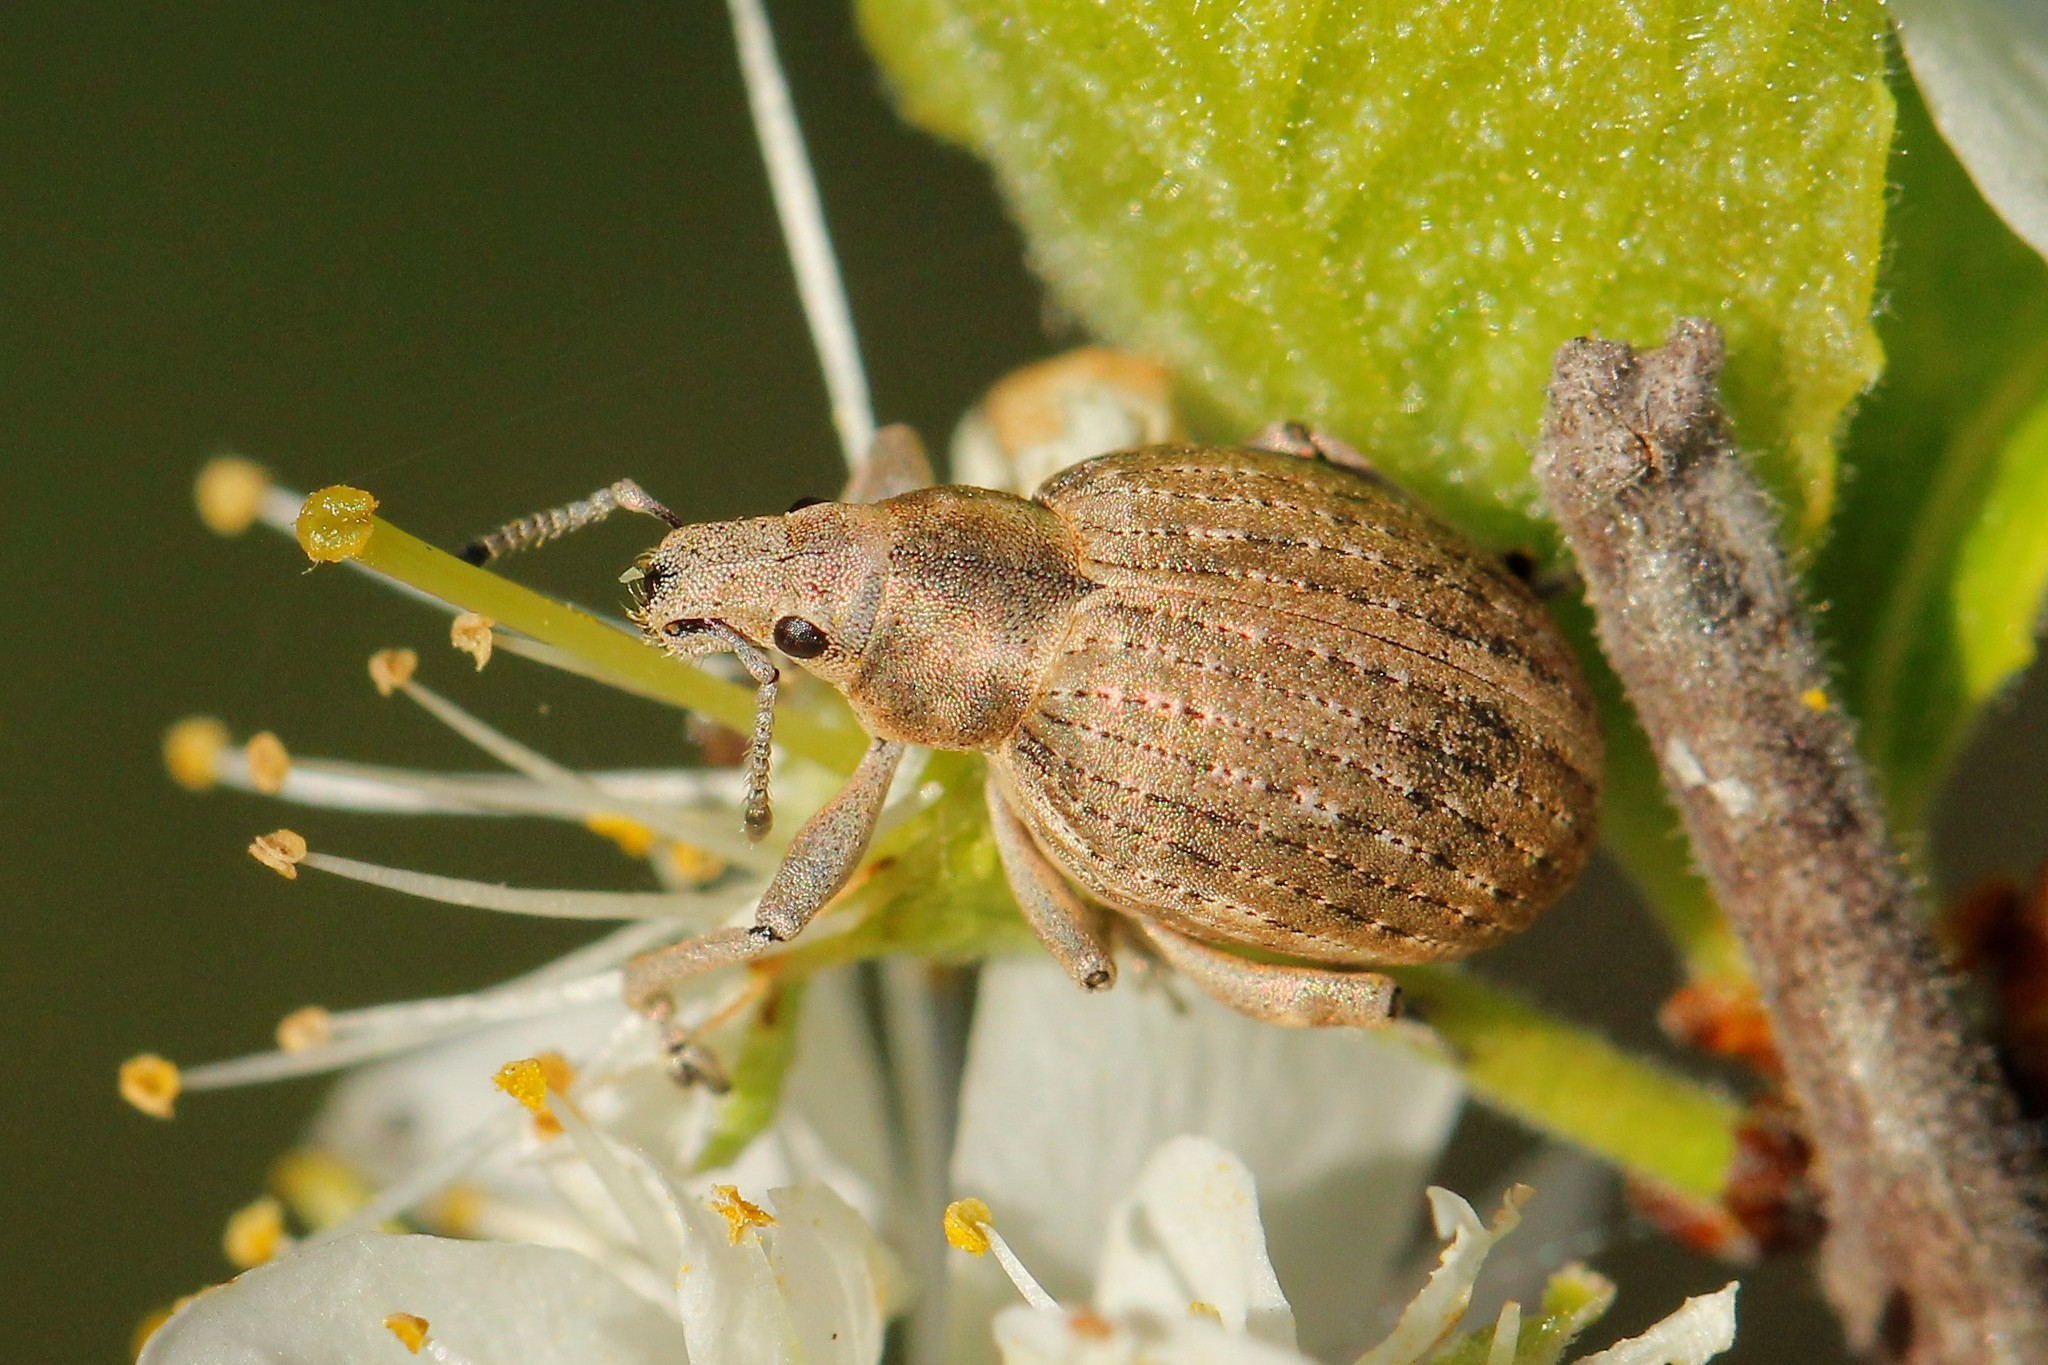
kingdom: Animalia
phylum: Arthropoda
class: Insecta
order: Coleoptera
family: Curculionidae
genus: Attactagenus
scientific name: Attactagenus albinus
